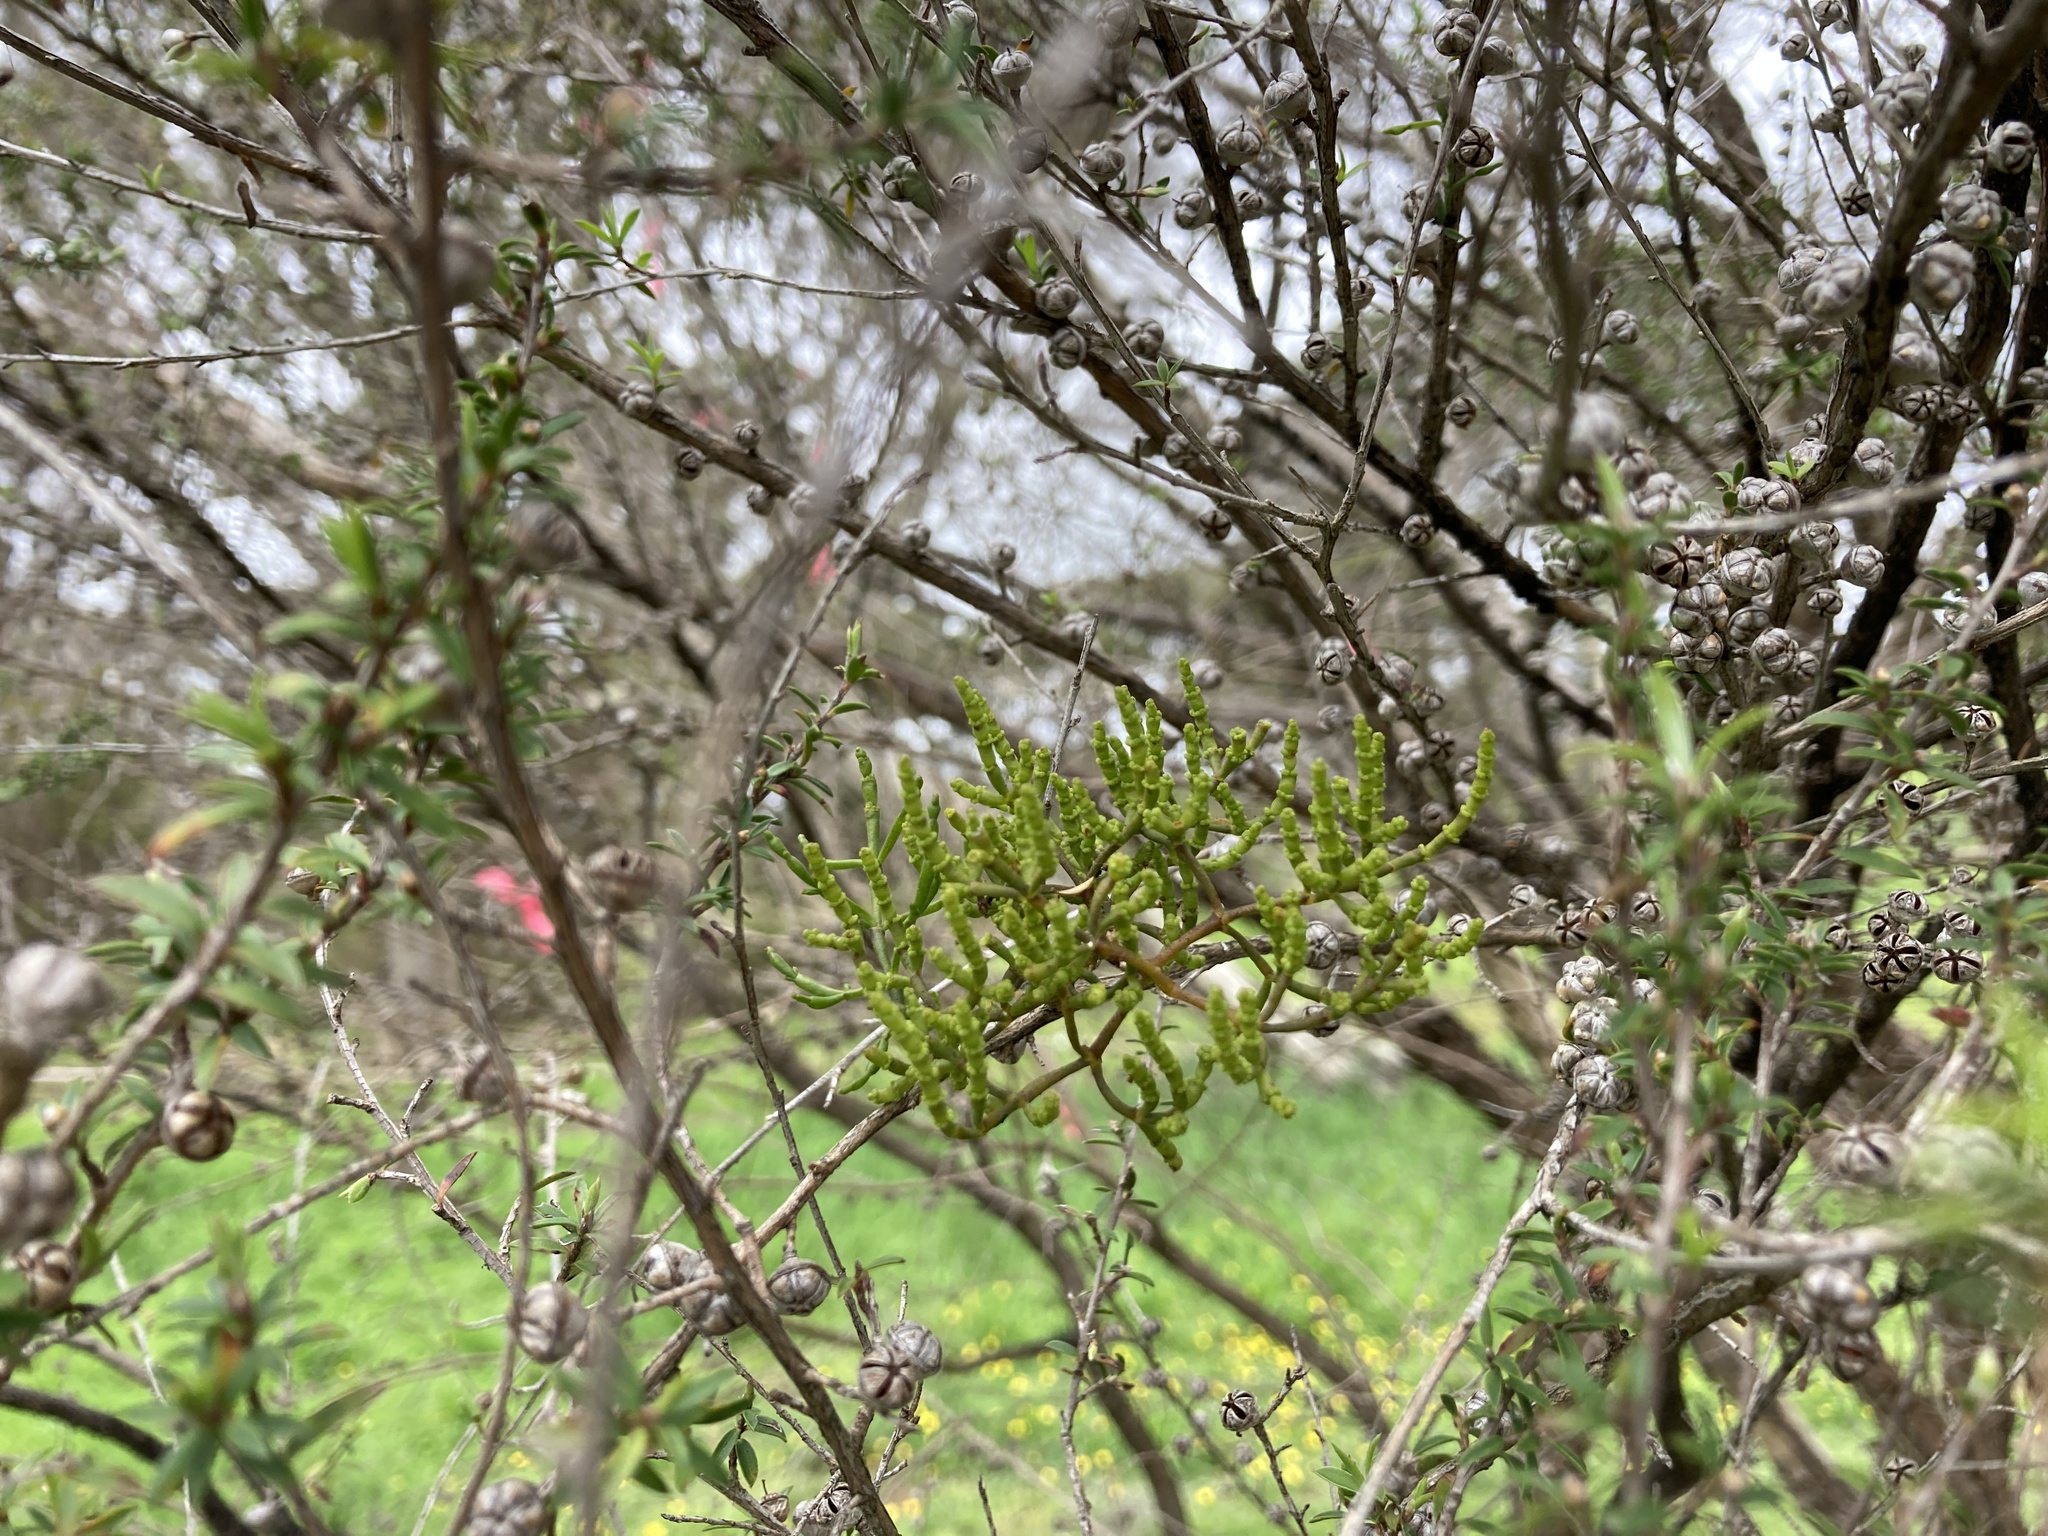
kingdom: Plantae
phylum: Tracheophyta
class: Magnoliopsida
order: Santalales
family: Viscaceae
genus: Korthalsella
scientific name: Korthalsella salicornioides
